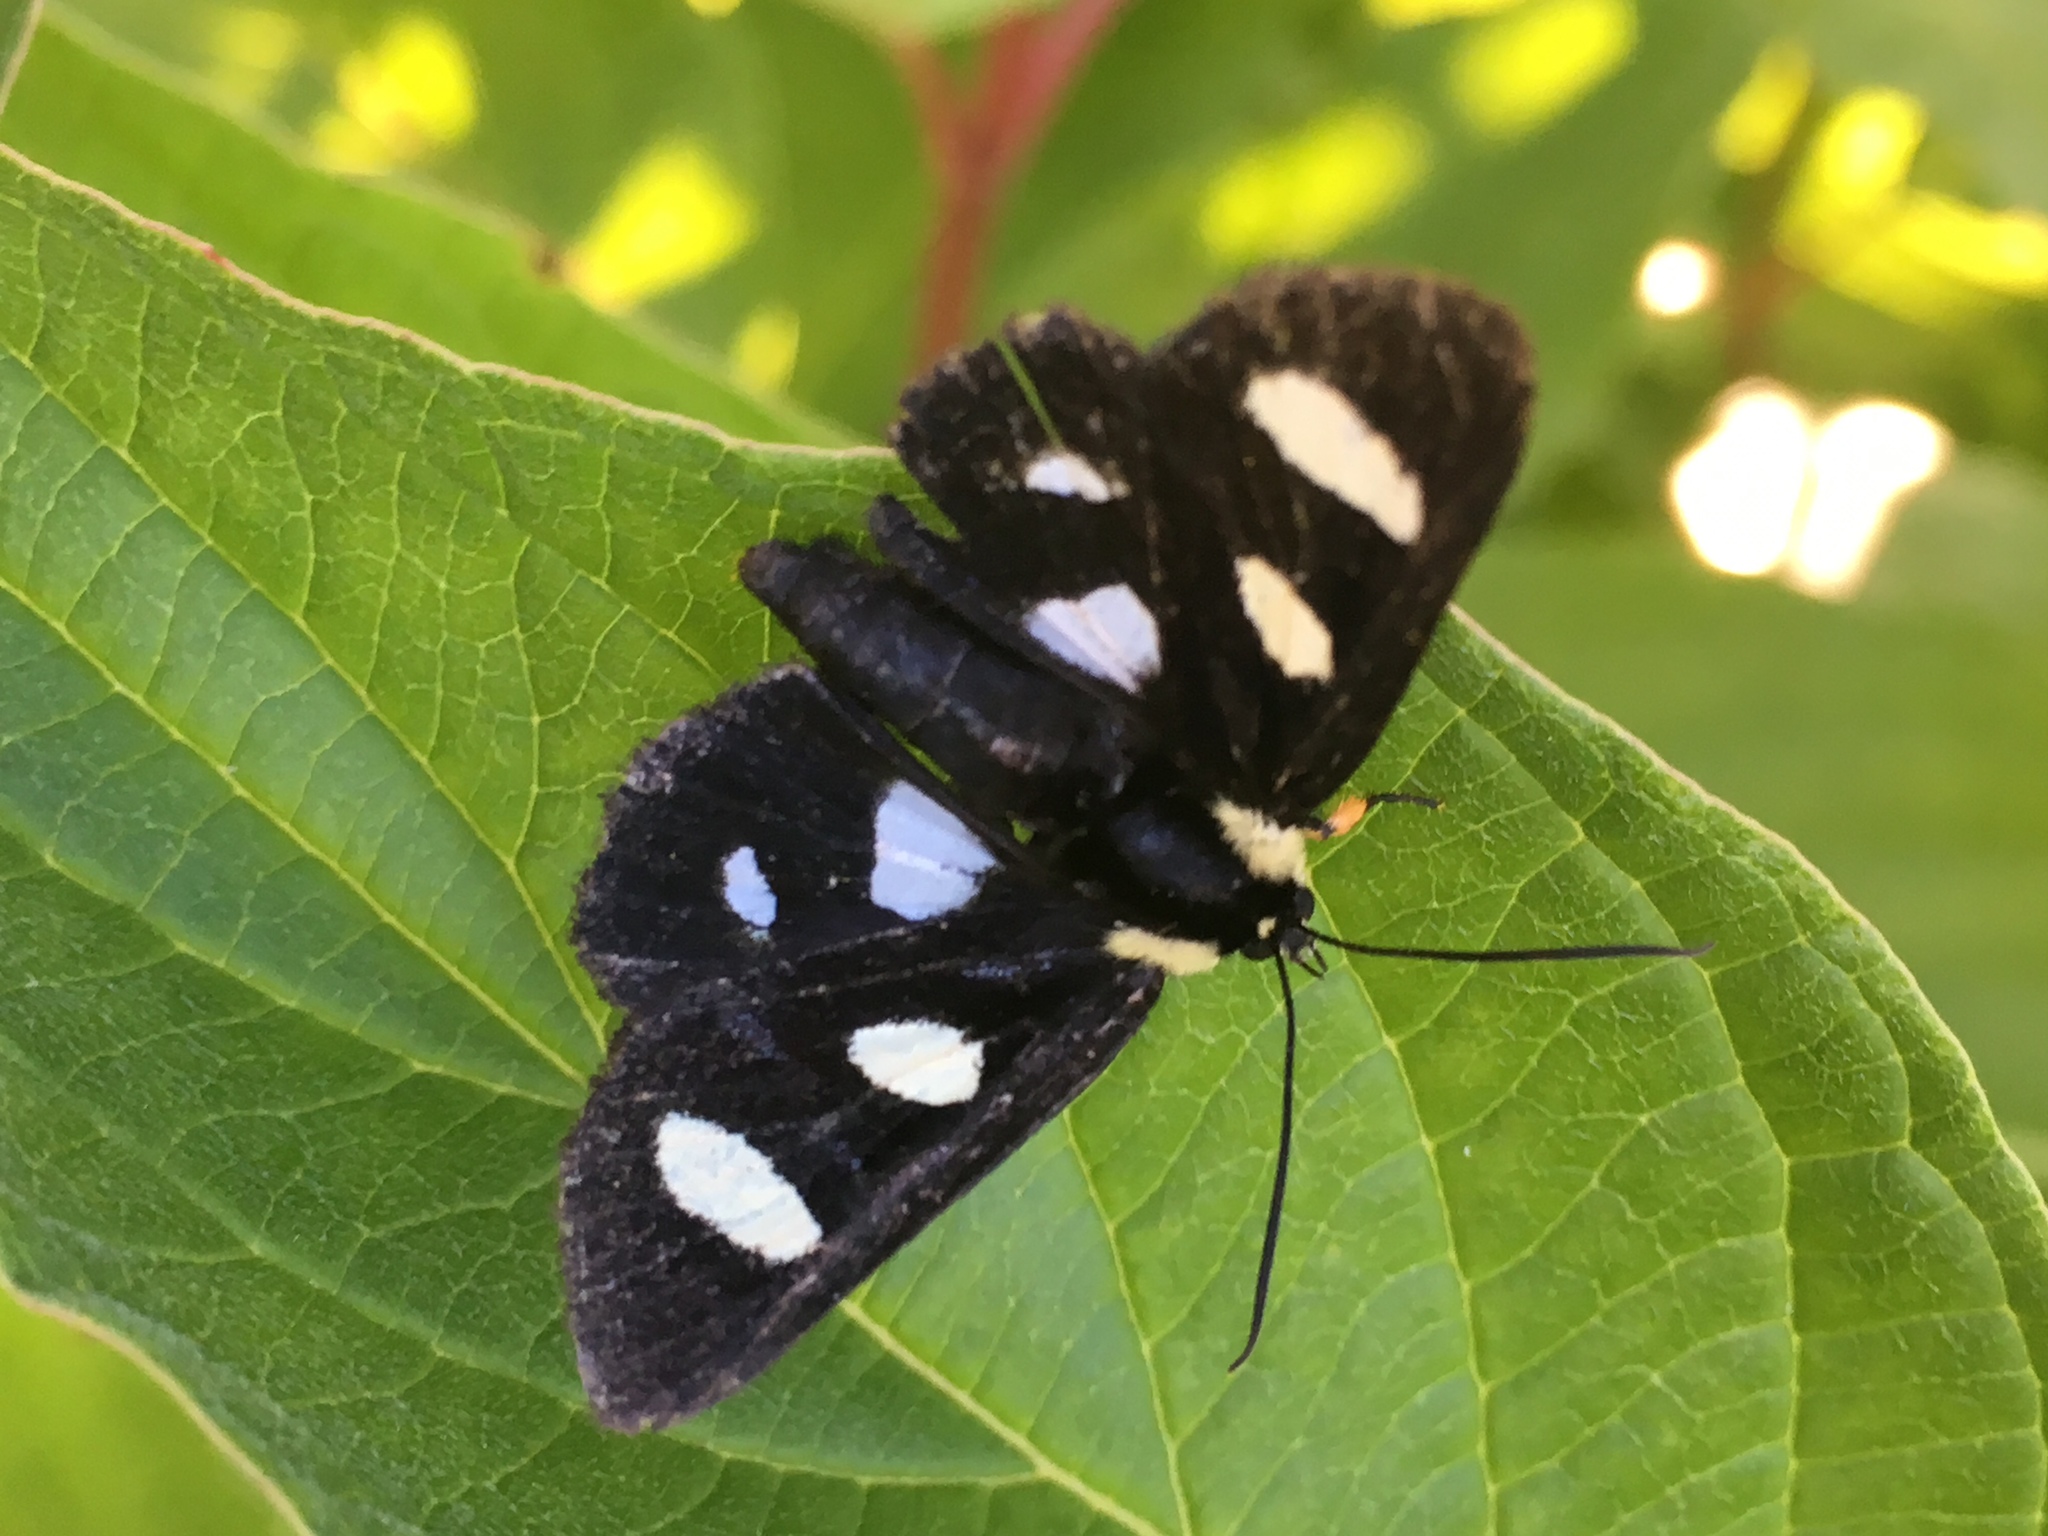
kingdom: Animalia
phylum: Arthropoda
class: Insecta
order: Lepidoptera
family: Noctuidae
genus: Alypia
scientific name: Alypia octomaculata
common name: Eight-spotted forester
